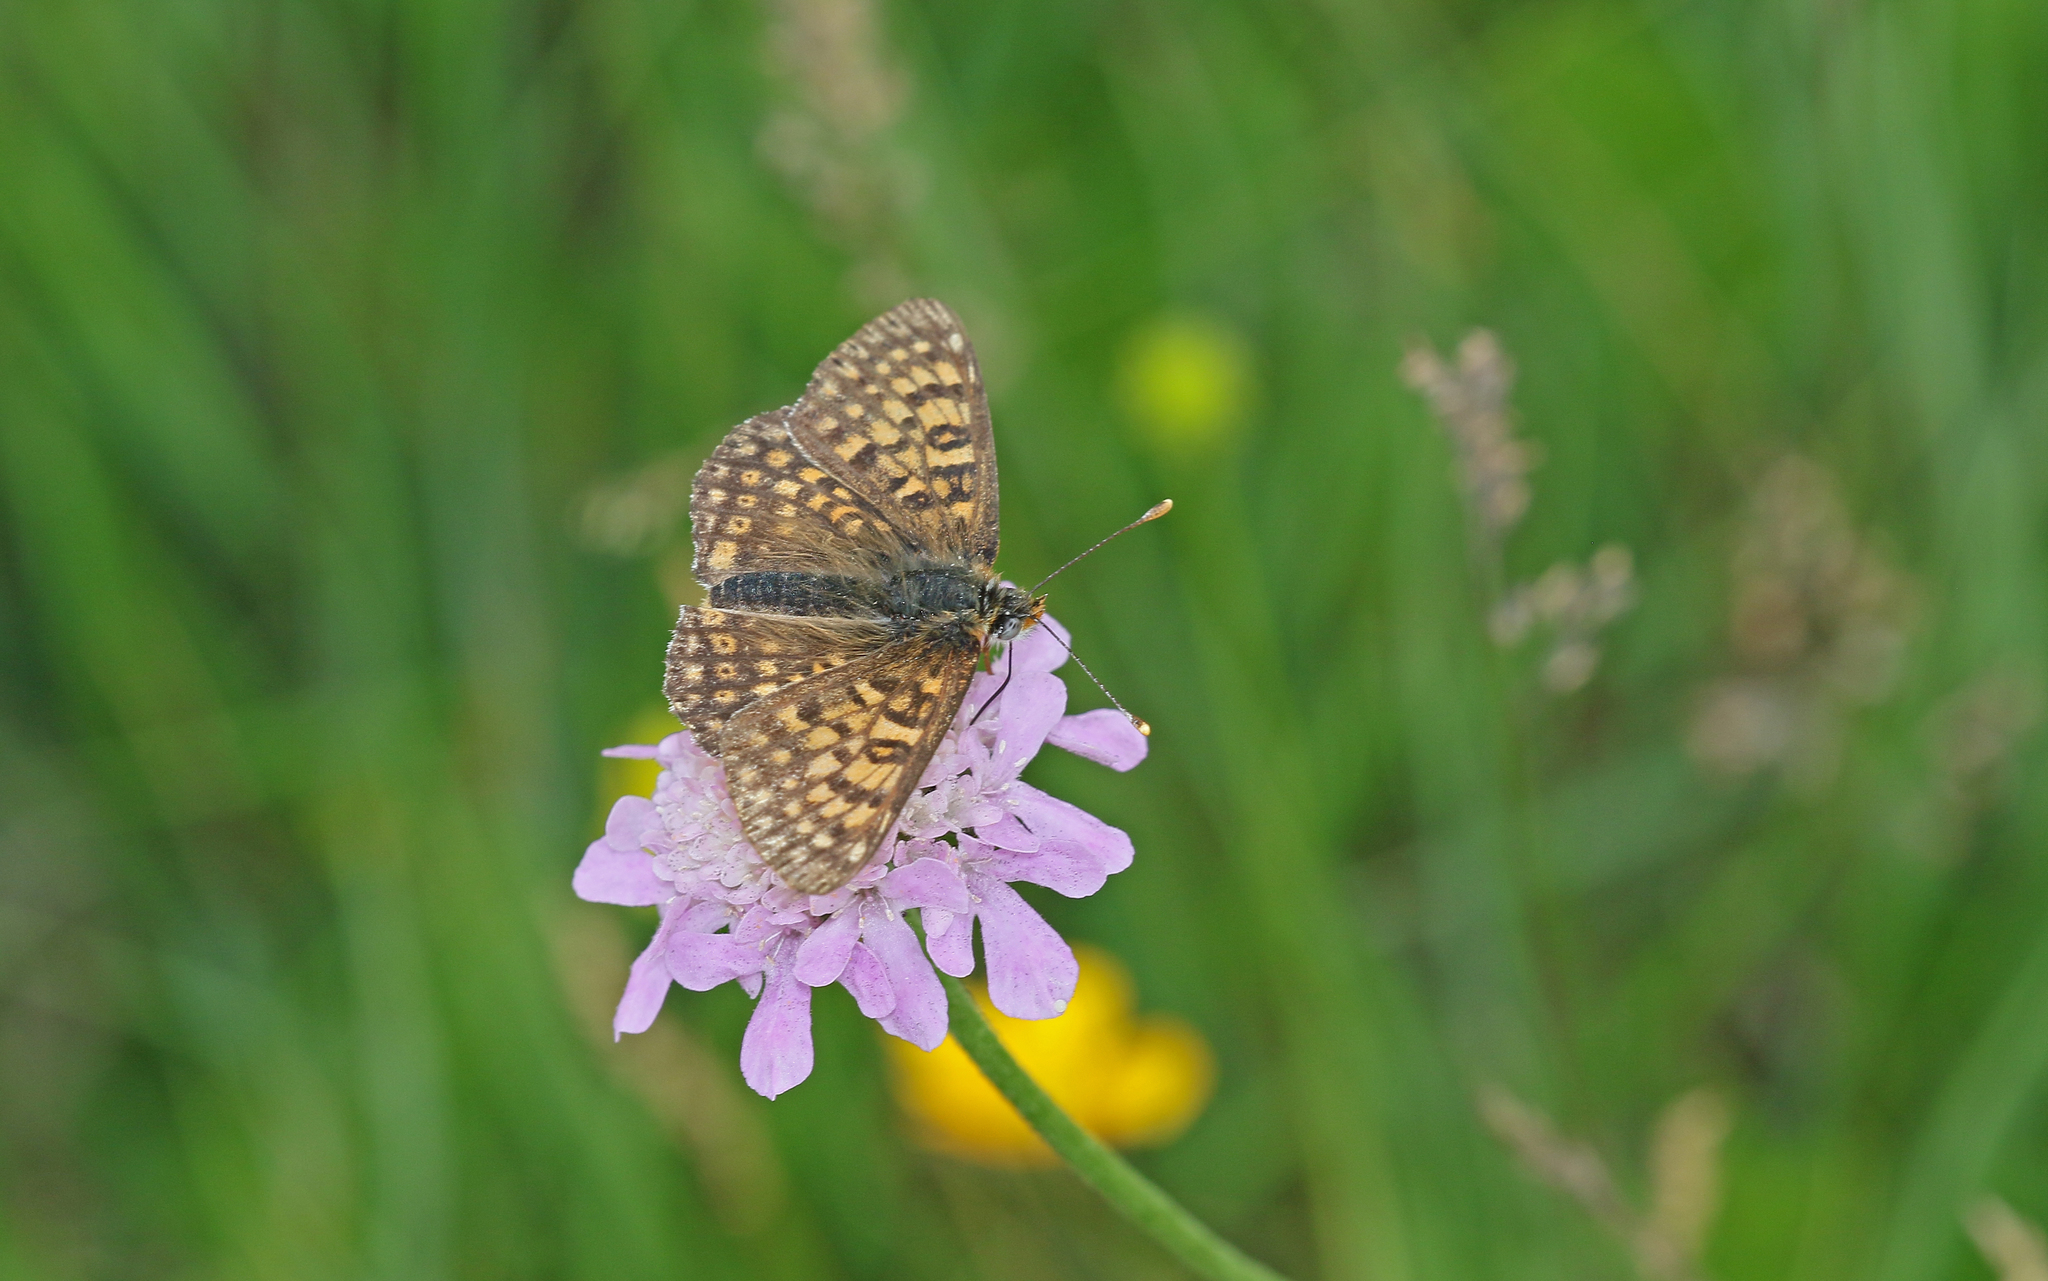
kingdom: Animalia
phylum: Arthropoda
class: Insecta
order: Lepidoptera
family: Nymphalidae
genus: Melitaea
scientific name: Melitaea cinxia
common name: Glanville fritillary
